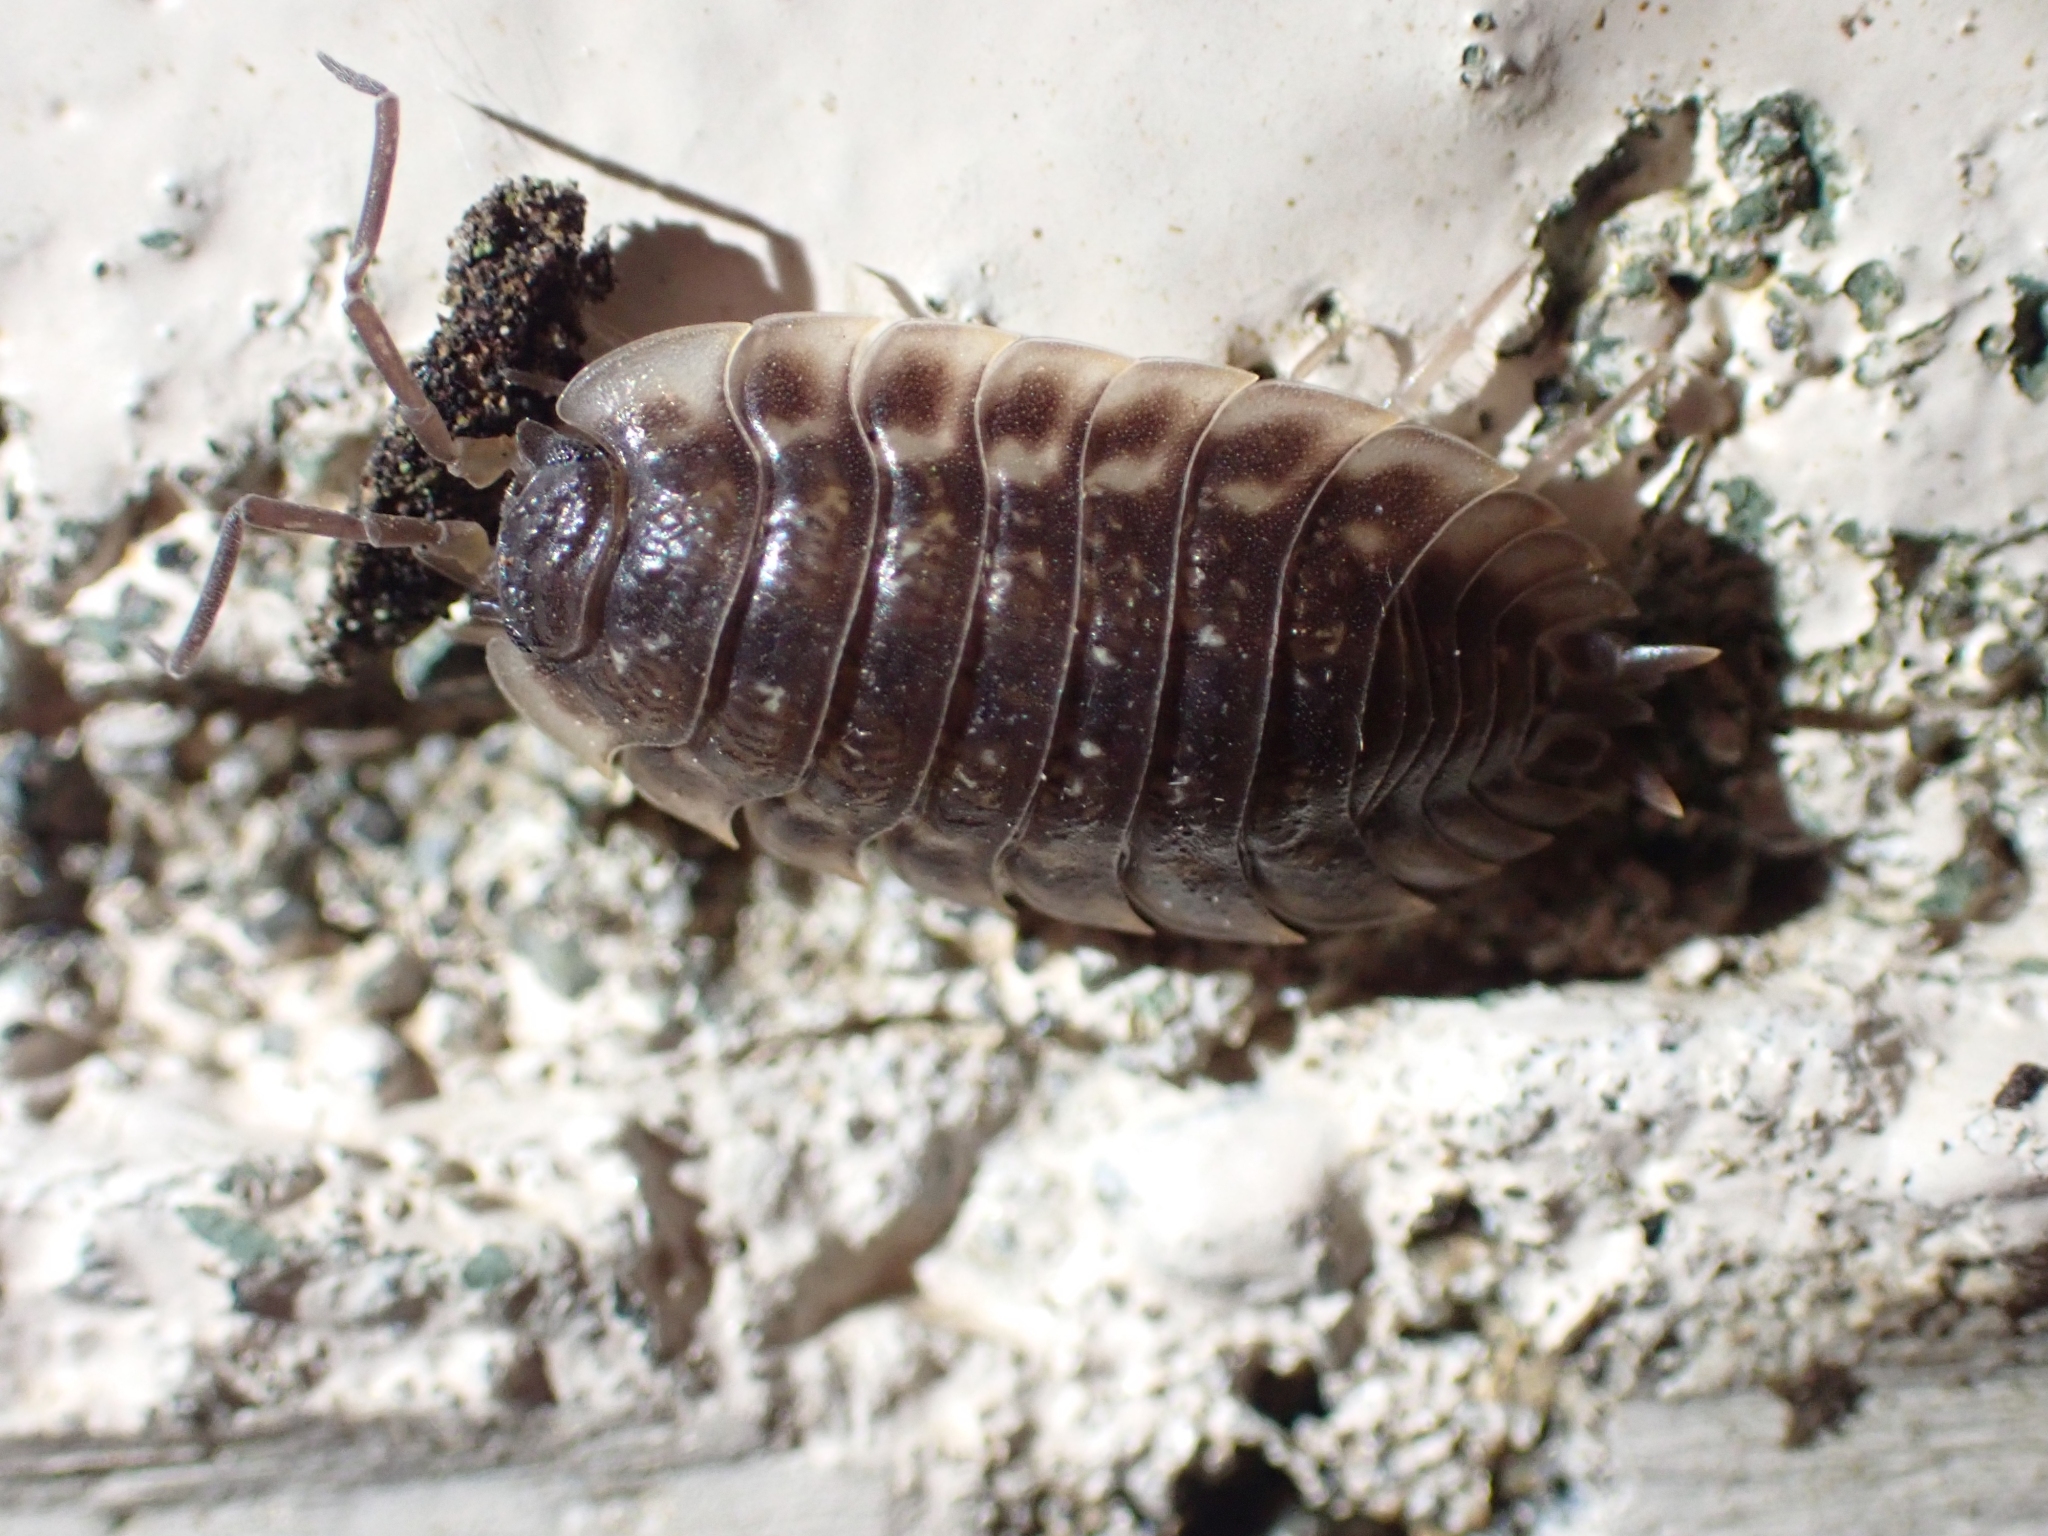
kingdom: Animalia
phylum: Arthropoda
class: Malacostraca
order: Isopoda
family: Oniscidae
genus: Oniscus
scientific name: Oniscus asellus
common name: Common shiny woodlouse
